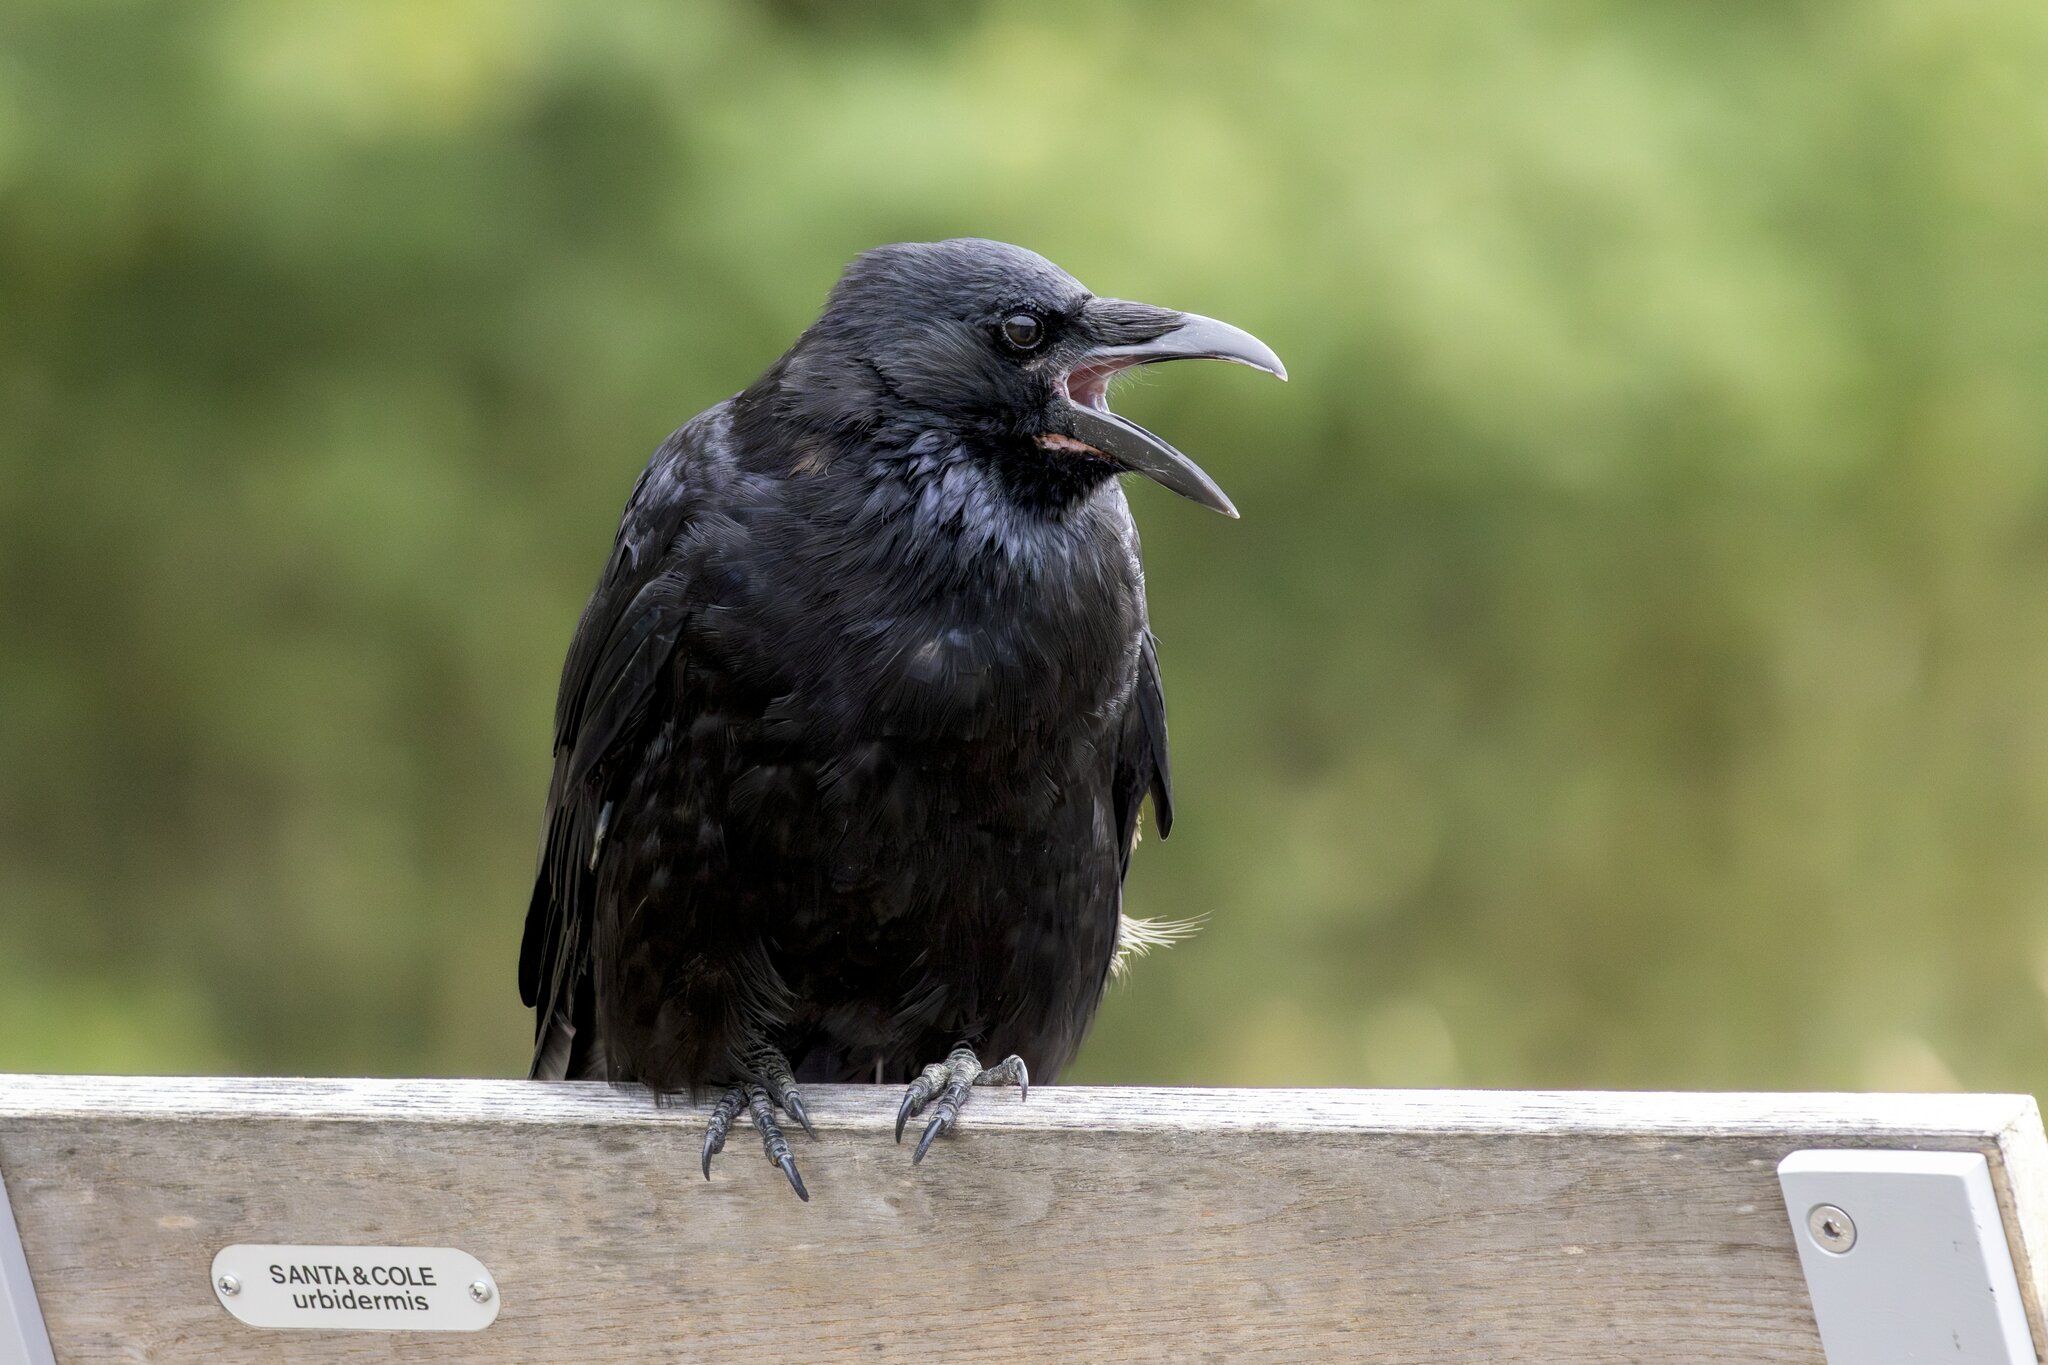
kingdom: Animalia
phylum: Chordata
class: Aves
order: Passeriformes
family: Corvidae
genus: Corvus
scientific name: Corvus corone
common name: Carrion crow
